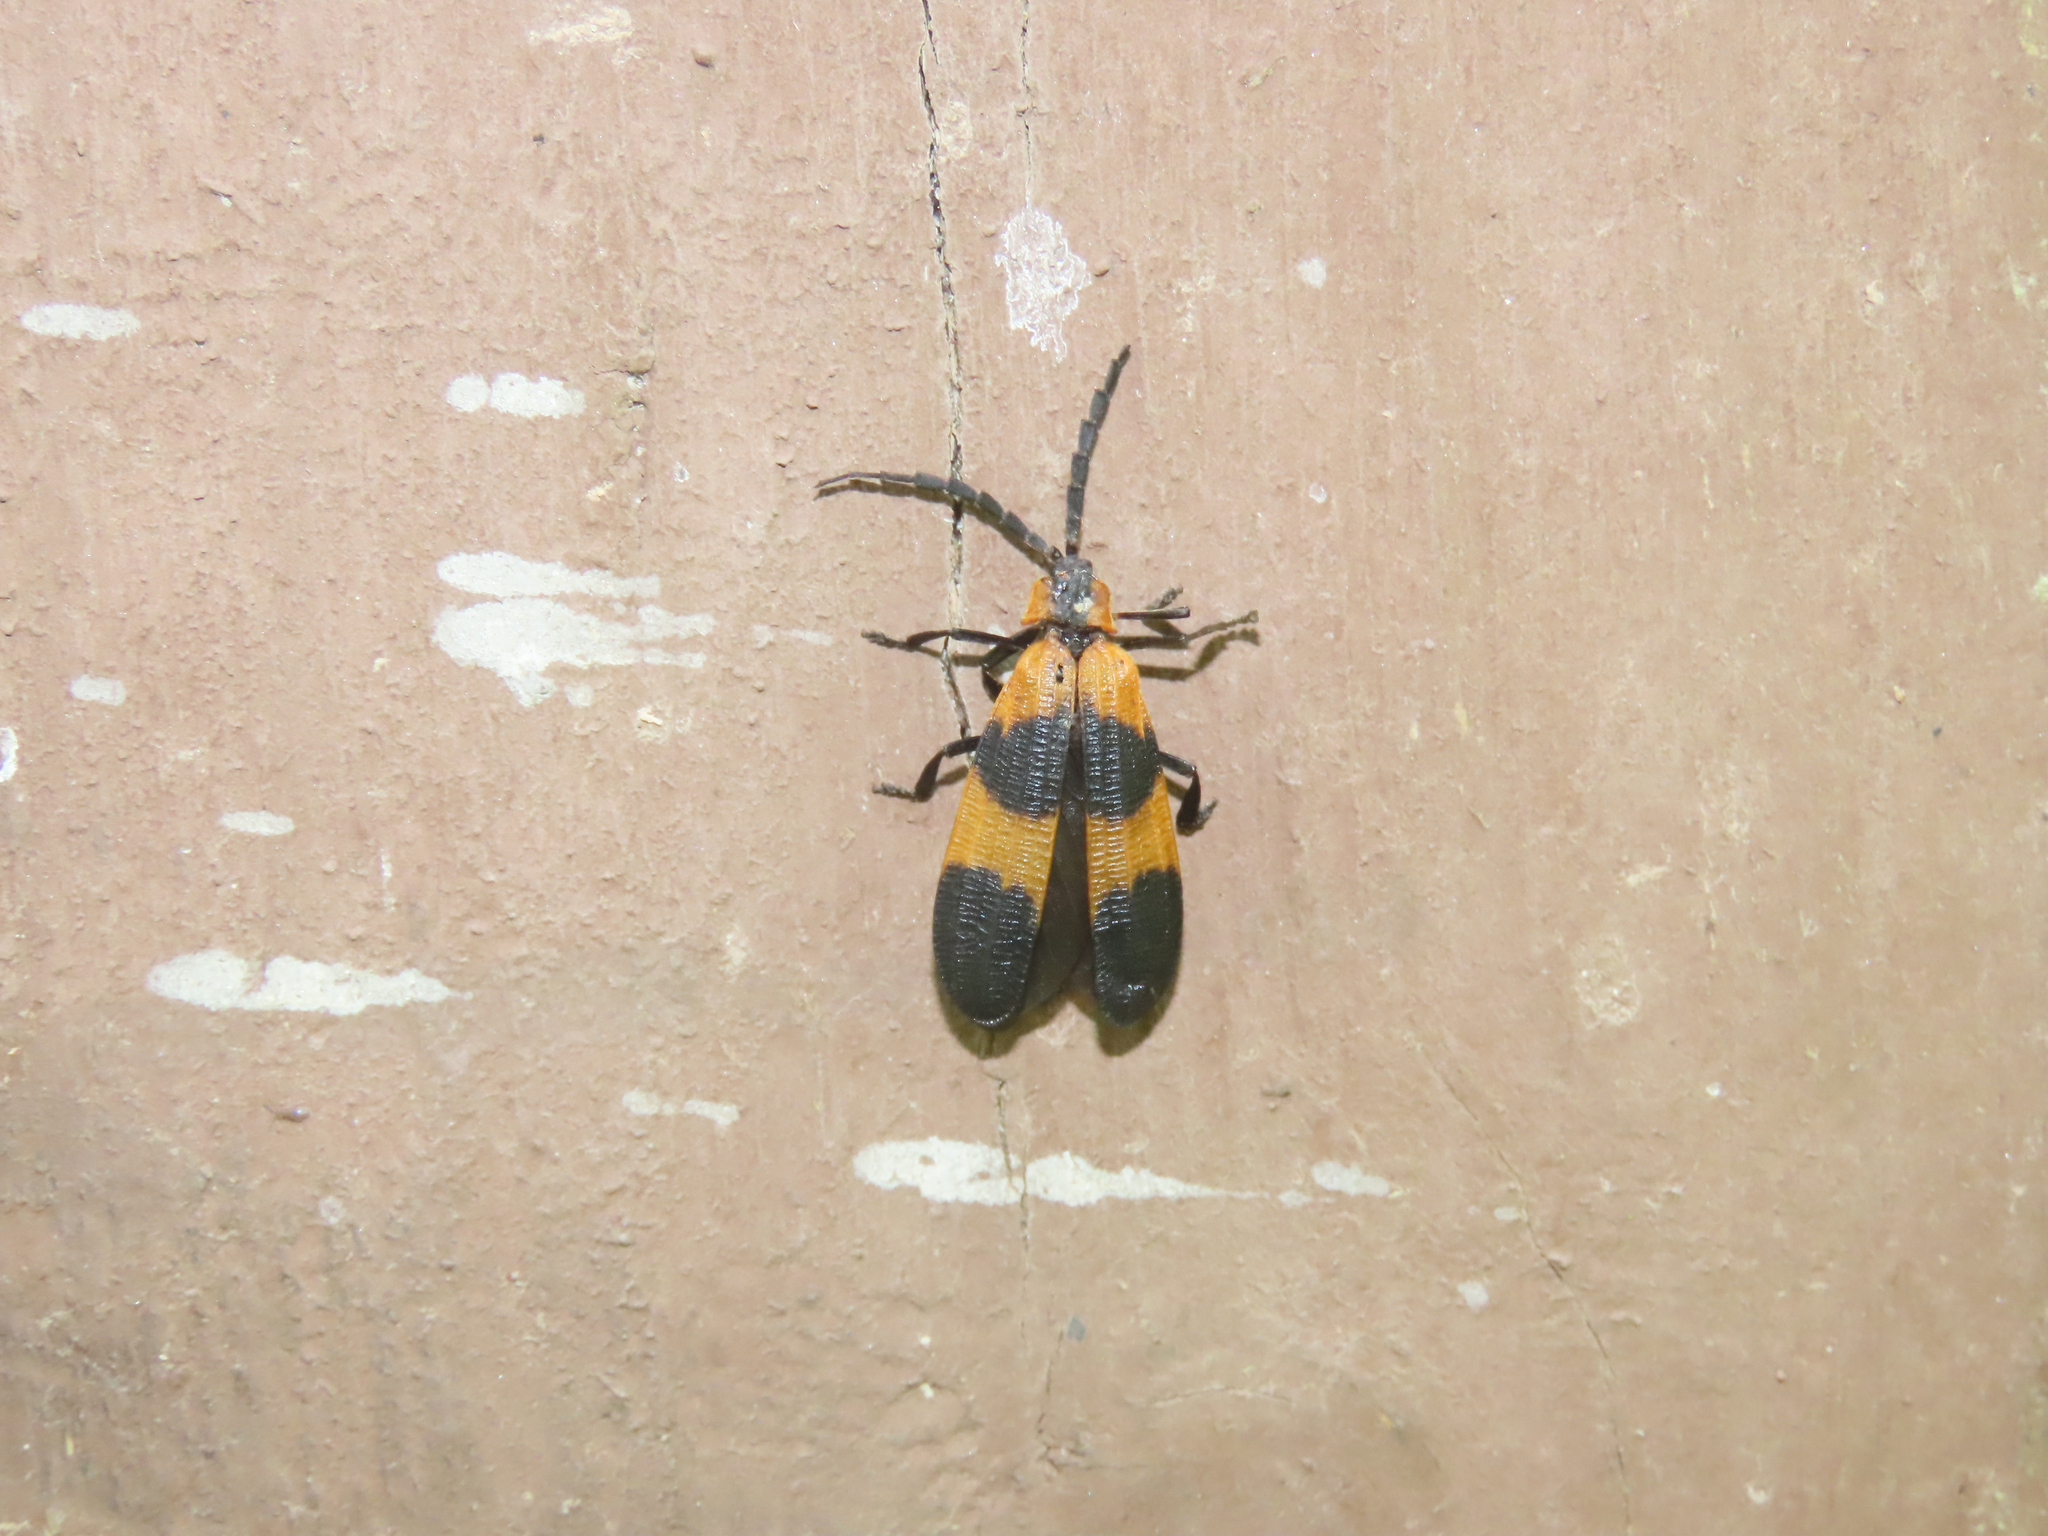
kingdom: Animalia
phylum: Arthropoda
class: Insecta
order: Coleoptera
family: Lycidae
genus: Calopteron
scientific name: Calopteron reticulatum
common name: Banded net-winged beetle
